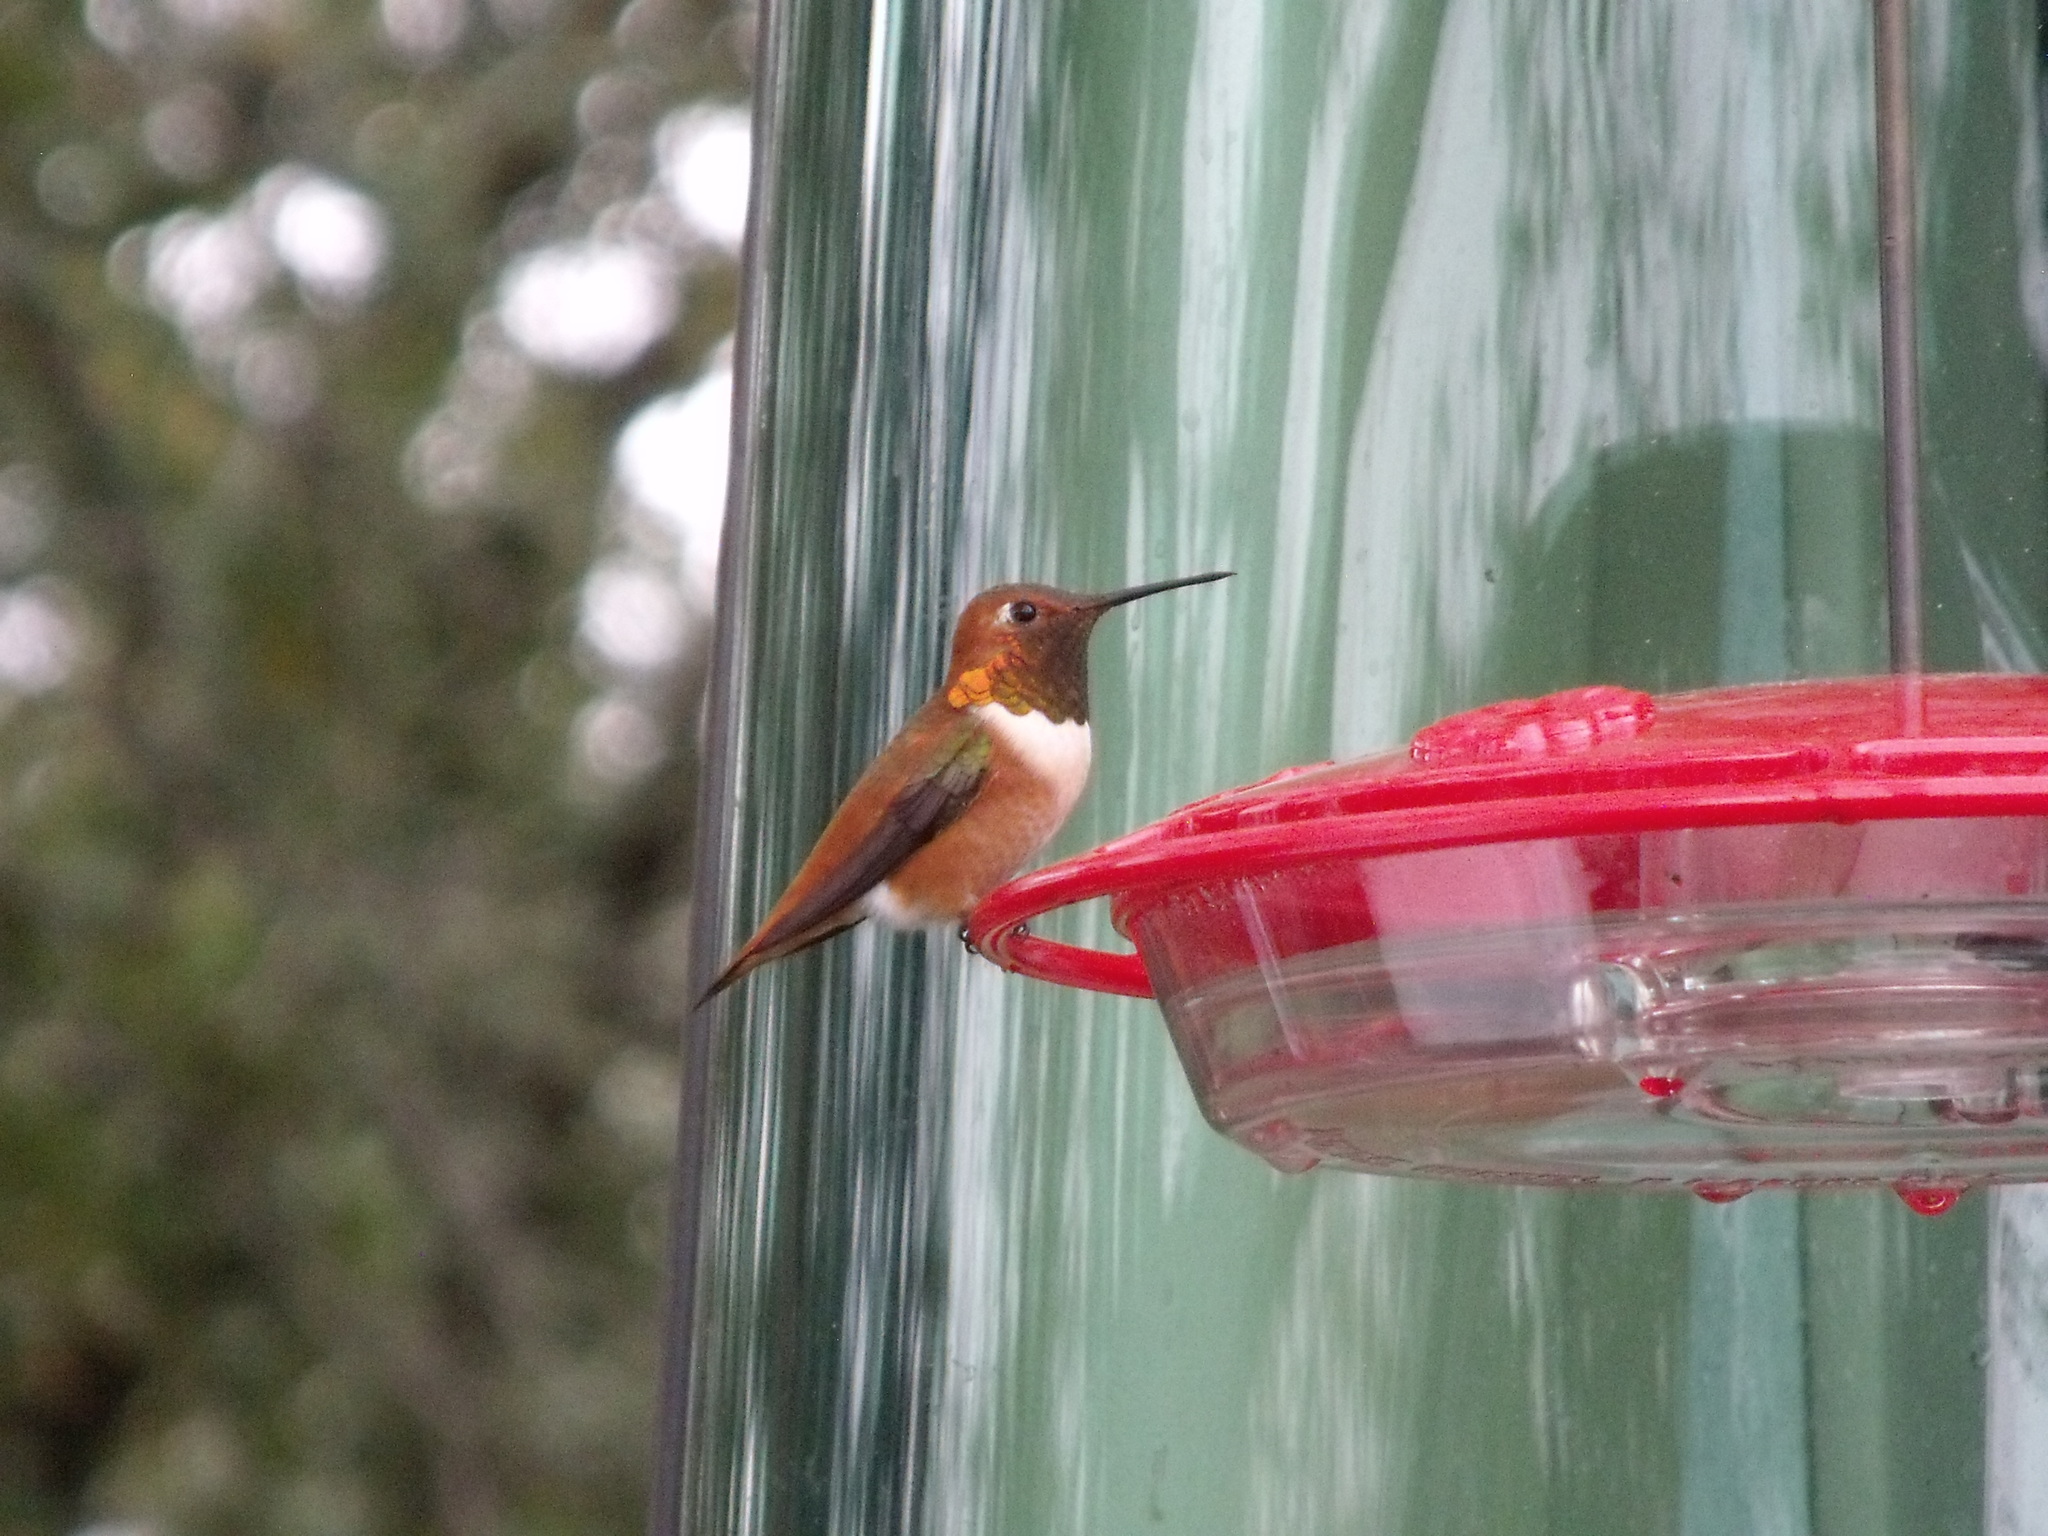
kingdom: Animalia
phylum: Chordata
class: Aves
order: Apodiformes
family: Trochilidae
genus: Selasphorus
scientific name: Selasphorus rufus
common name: Rufous hummingbird
